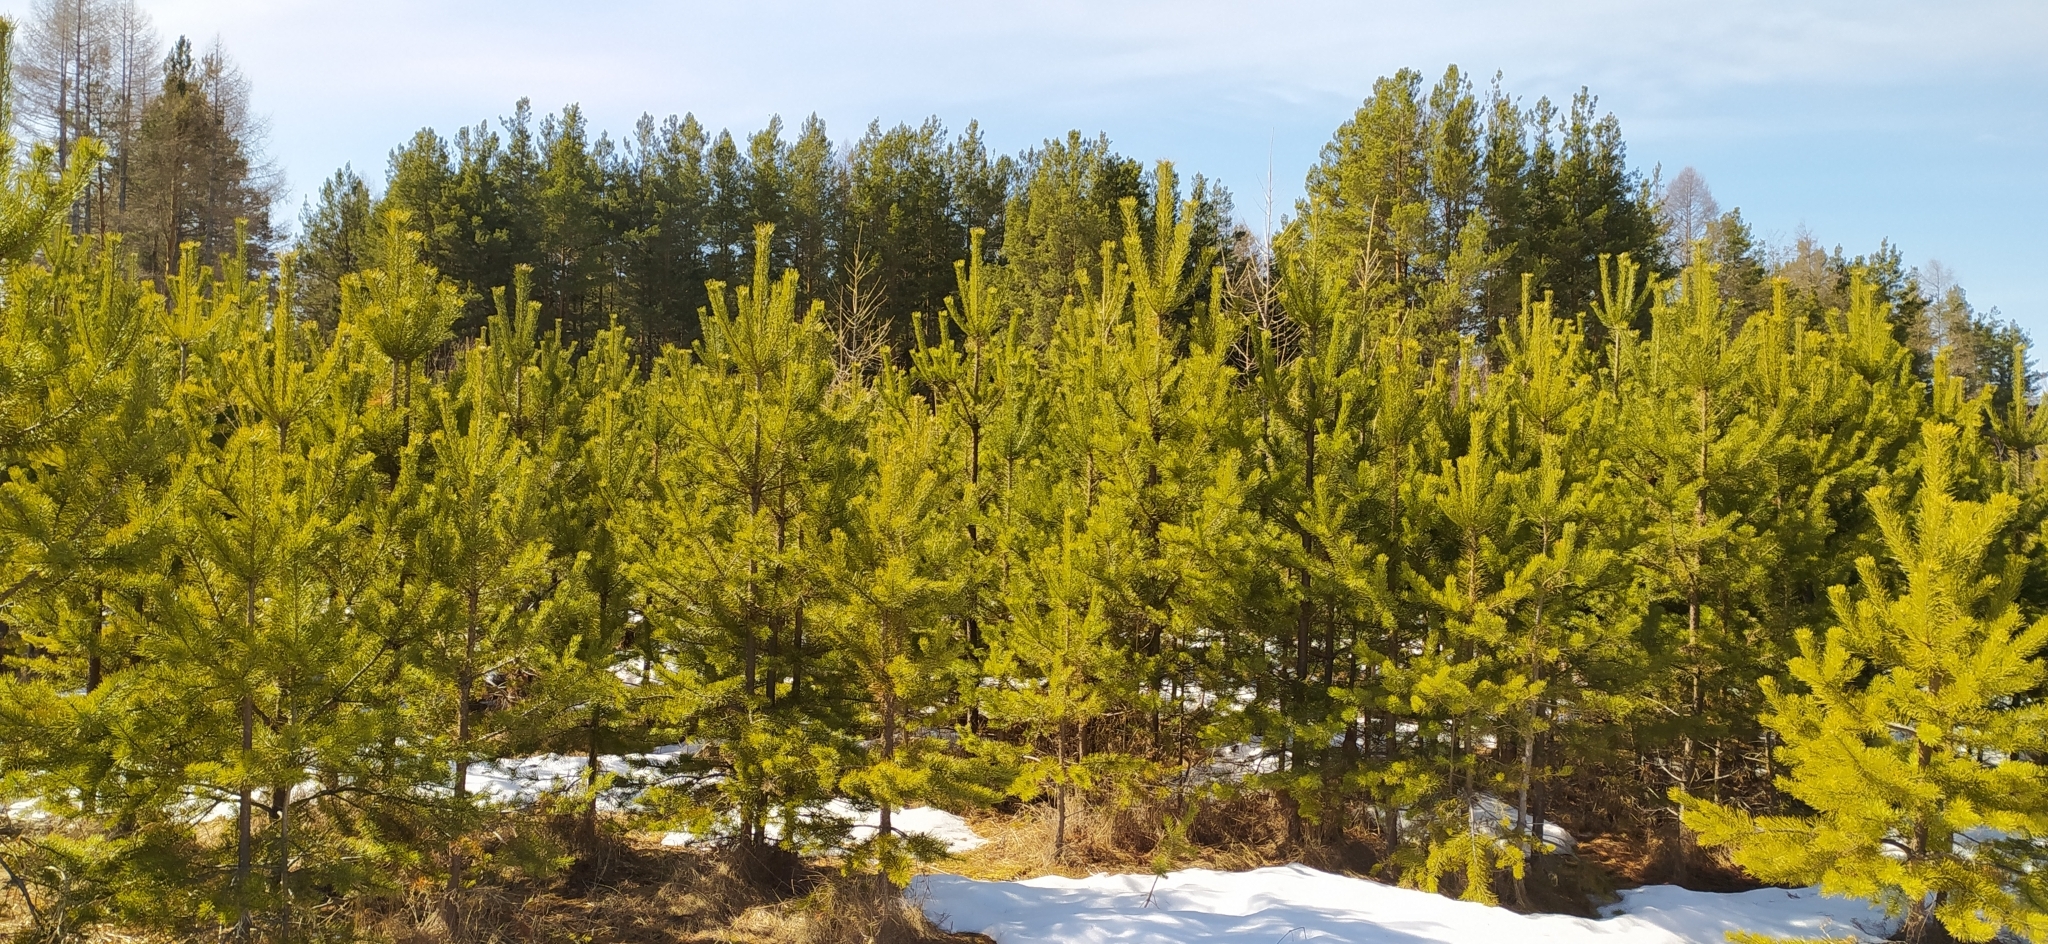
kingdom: Plantae
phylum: Tracheophyta
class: Pinopsida
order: Pinales
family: Pinaceae
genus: Pinus
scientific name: Pinus sylvestris
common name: Scots pine
